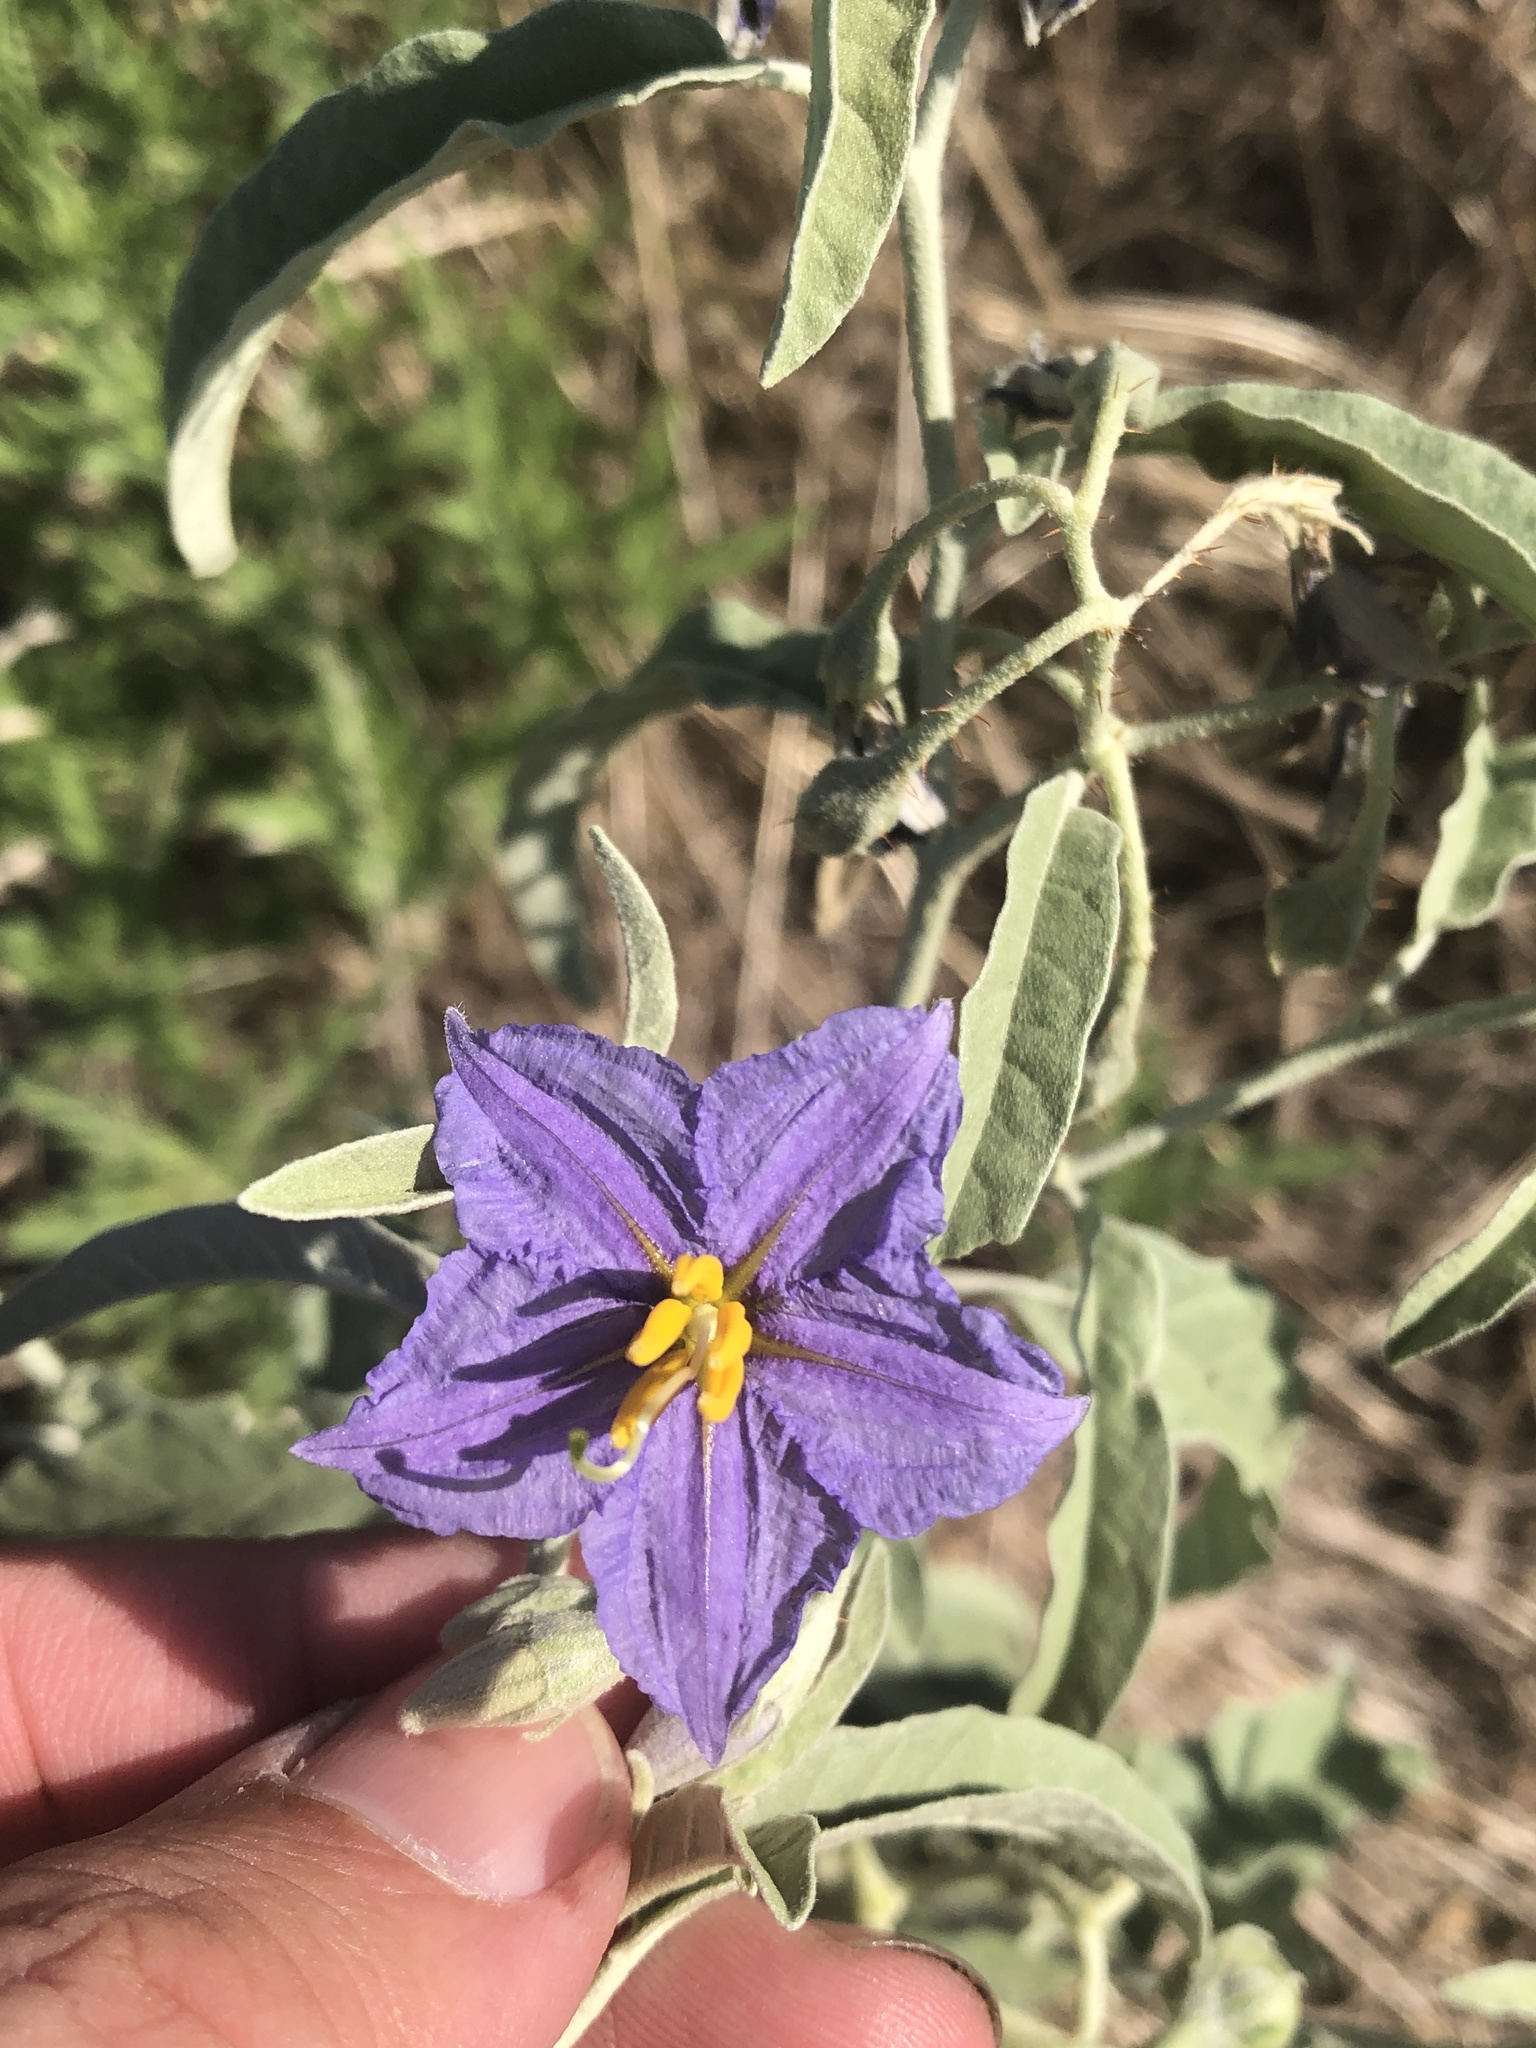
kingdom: Plantae
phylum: Tracheophyta
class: Magnoliopsida
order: Solanales
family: Solanaceae
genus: Solanum
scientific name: Solanum elaeagnifolium
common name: Silverleaf nightshade
